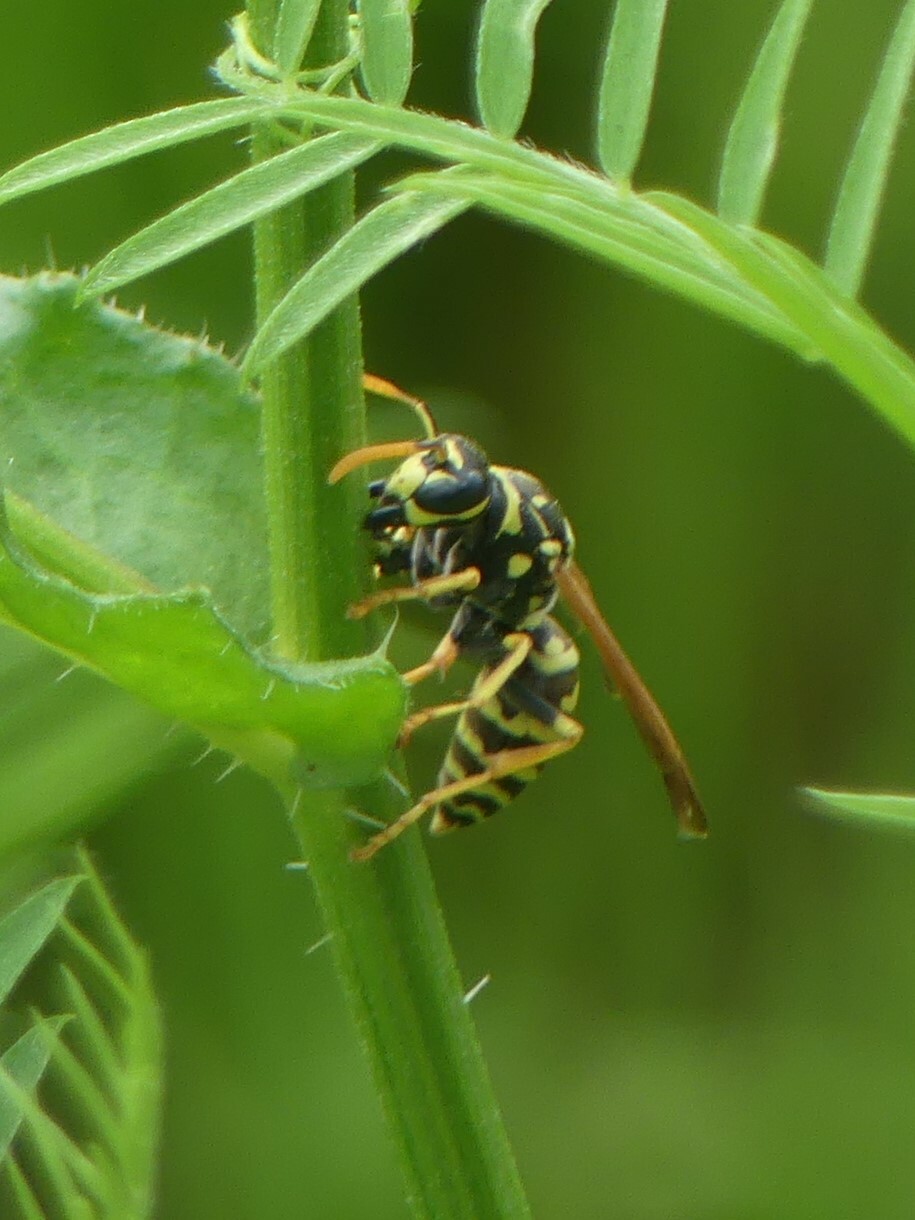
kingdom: Animalia
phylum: Arthropoda
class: Insecta
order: Hymenoptera
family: Eumenidae
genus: Polistes
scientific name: Polistes dominula
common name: Paper wasp
